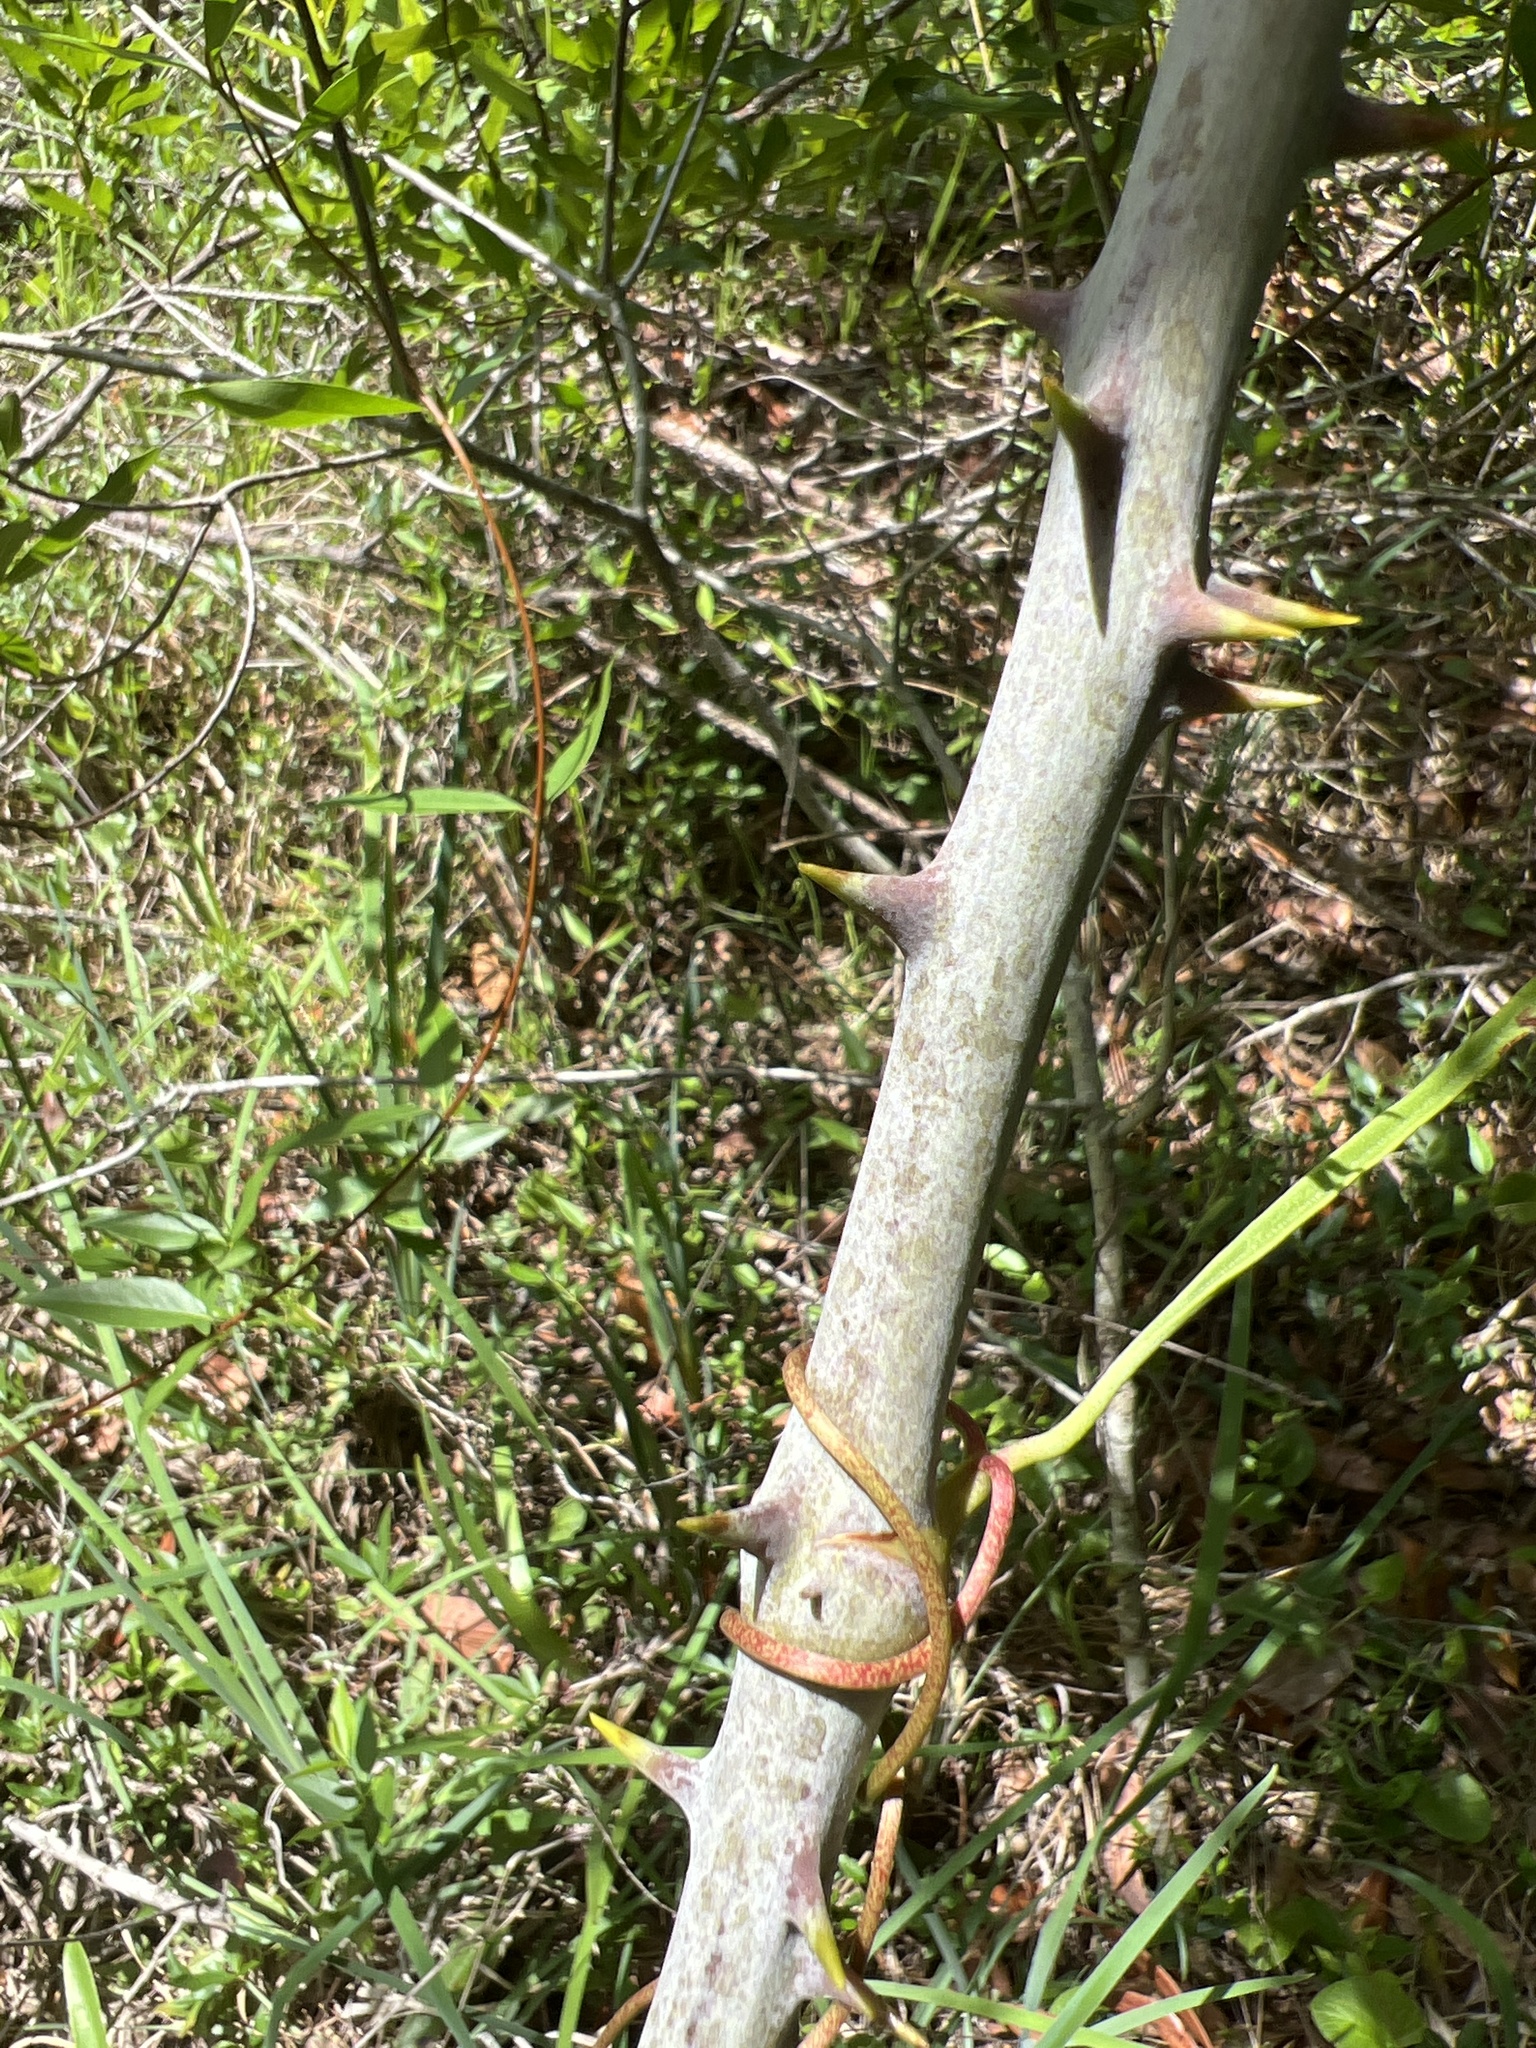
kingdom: Plantae
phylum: Tracheophyta
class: Liliopsida
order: Liliales
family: Smilacaceae
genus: Smilax
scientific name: Smilax laurifolia
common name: Bamboovine
